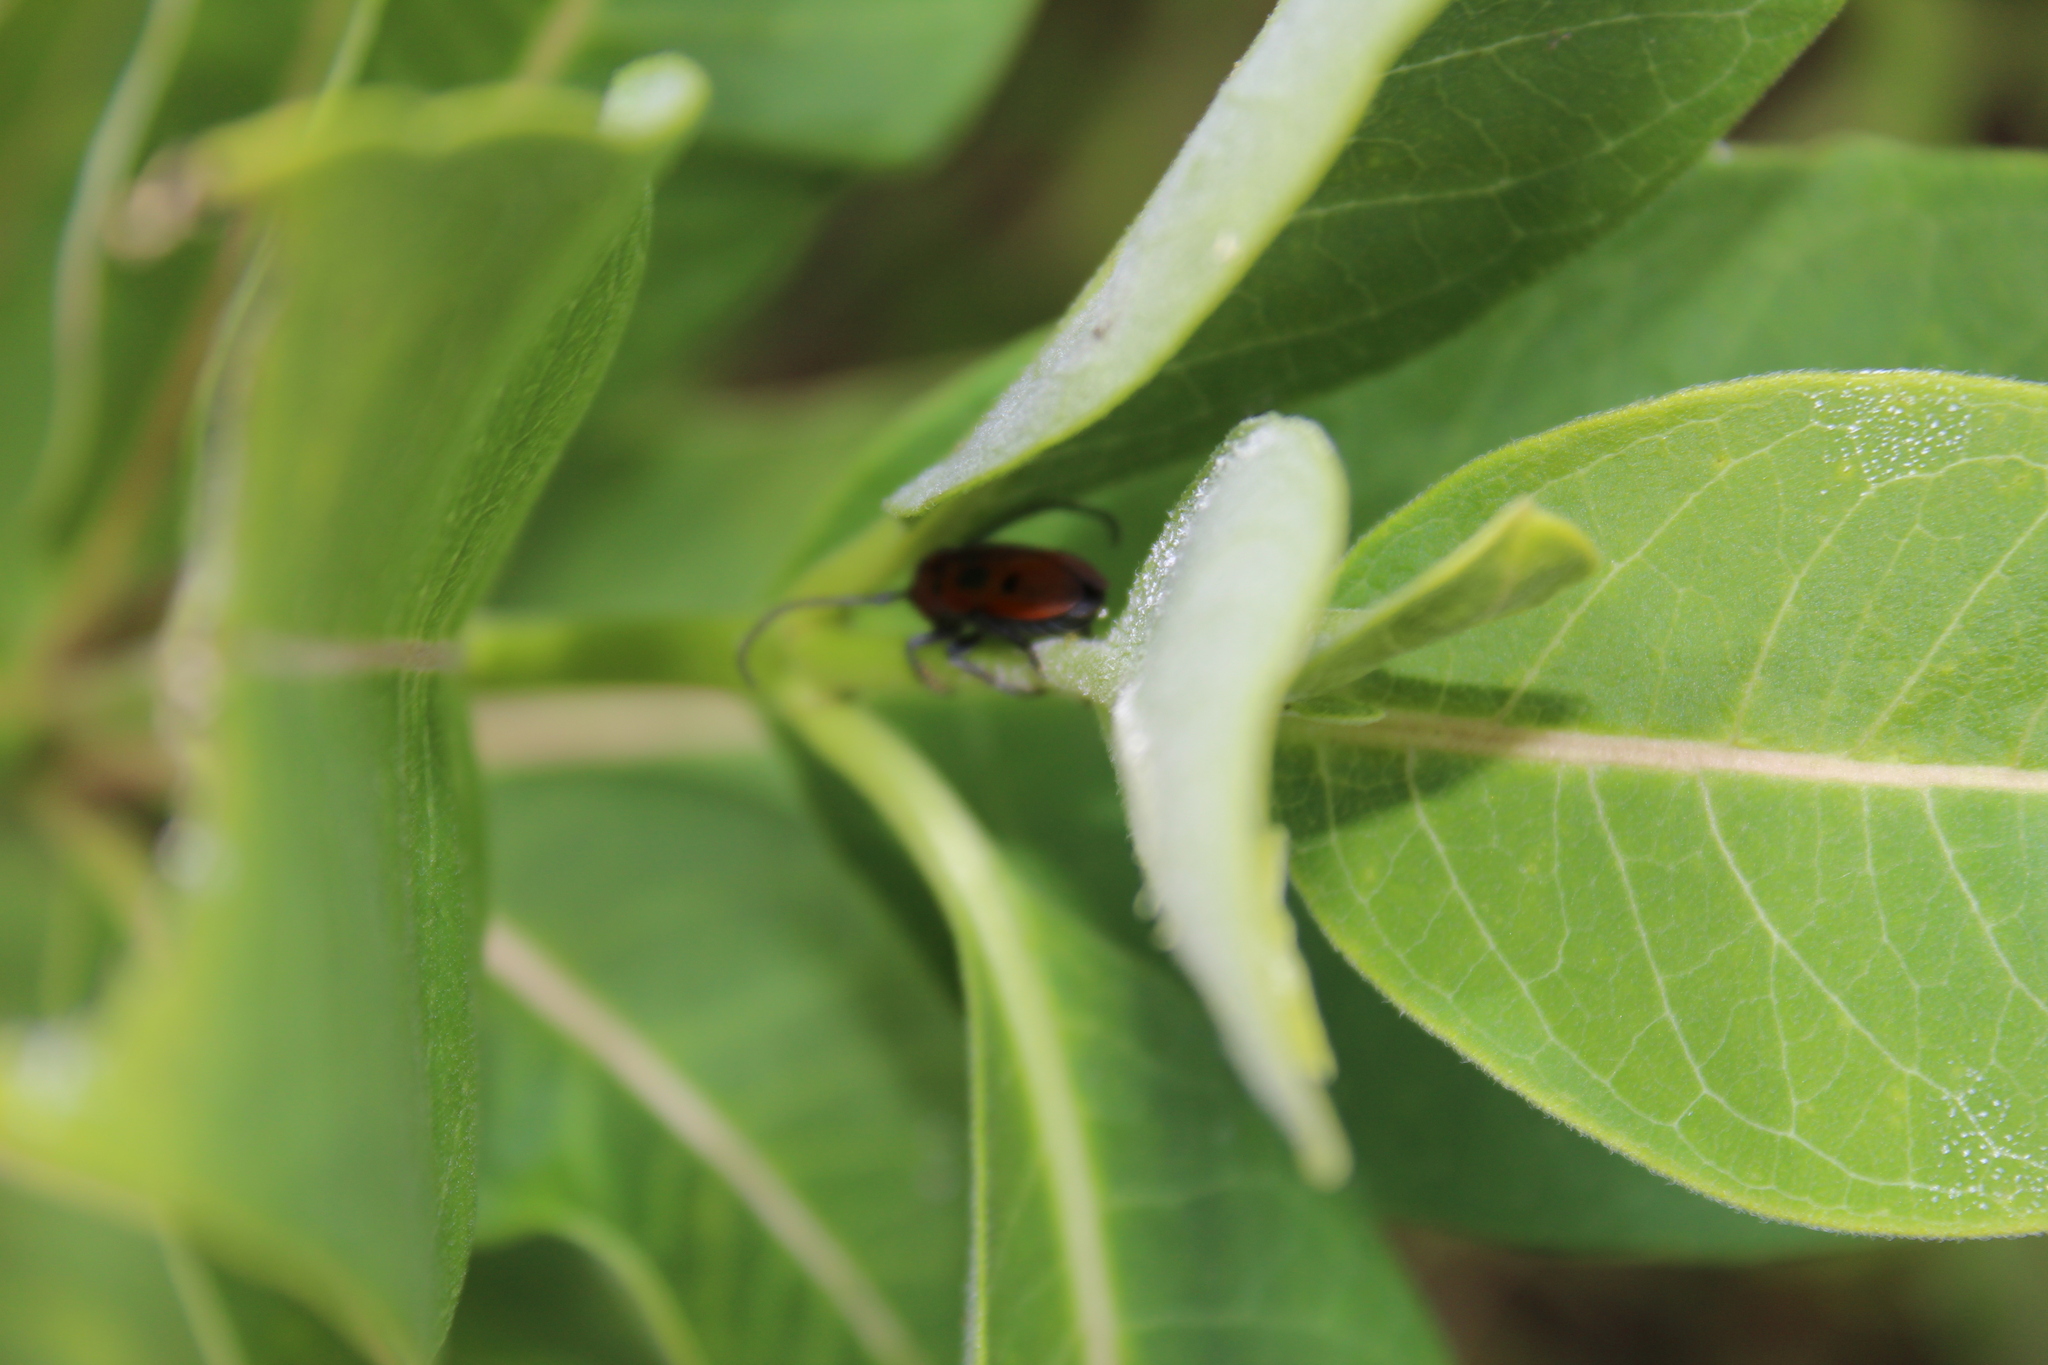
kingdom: Animalia
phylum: Arthropoda
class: Insecta
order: Coleoptera
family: Cerambycidae
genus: Tetraopes
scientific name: Tetraopes tetrophthalmus
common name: Red milkweed beetle
